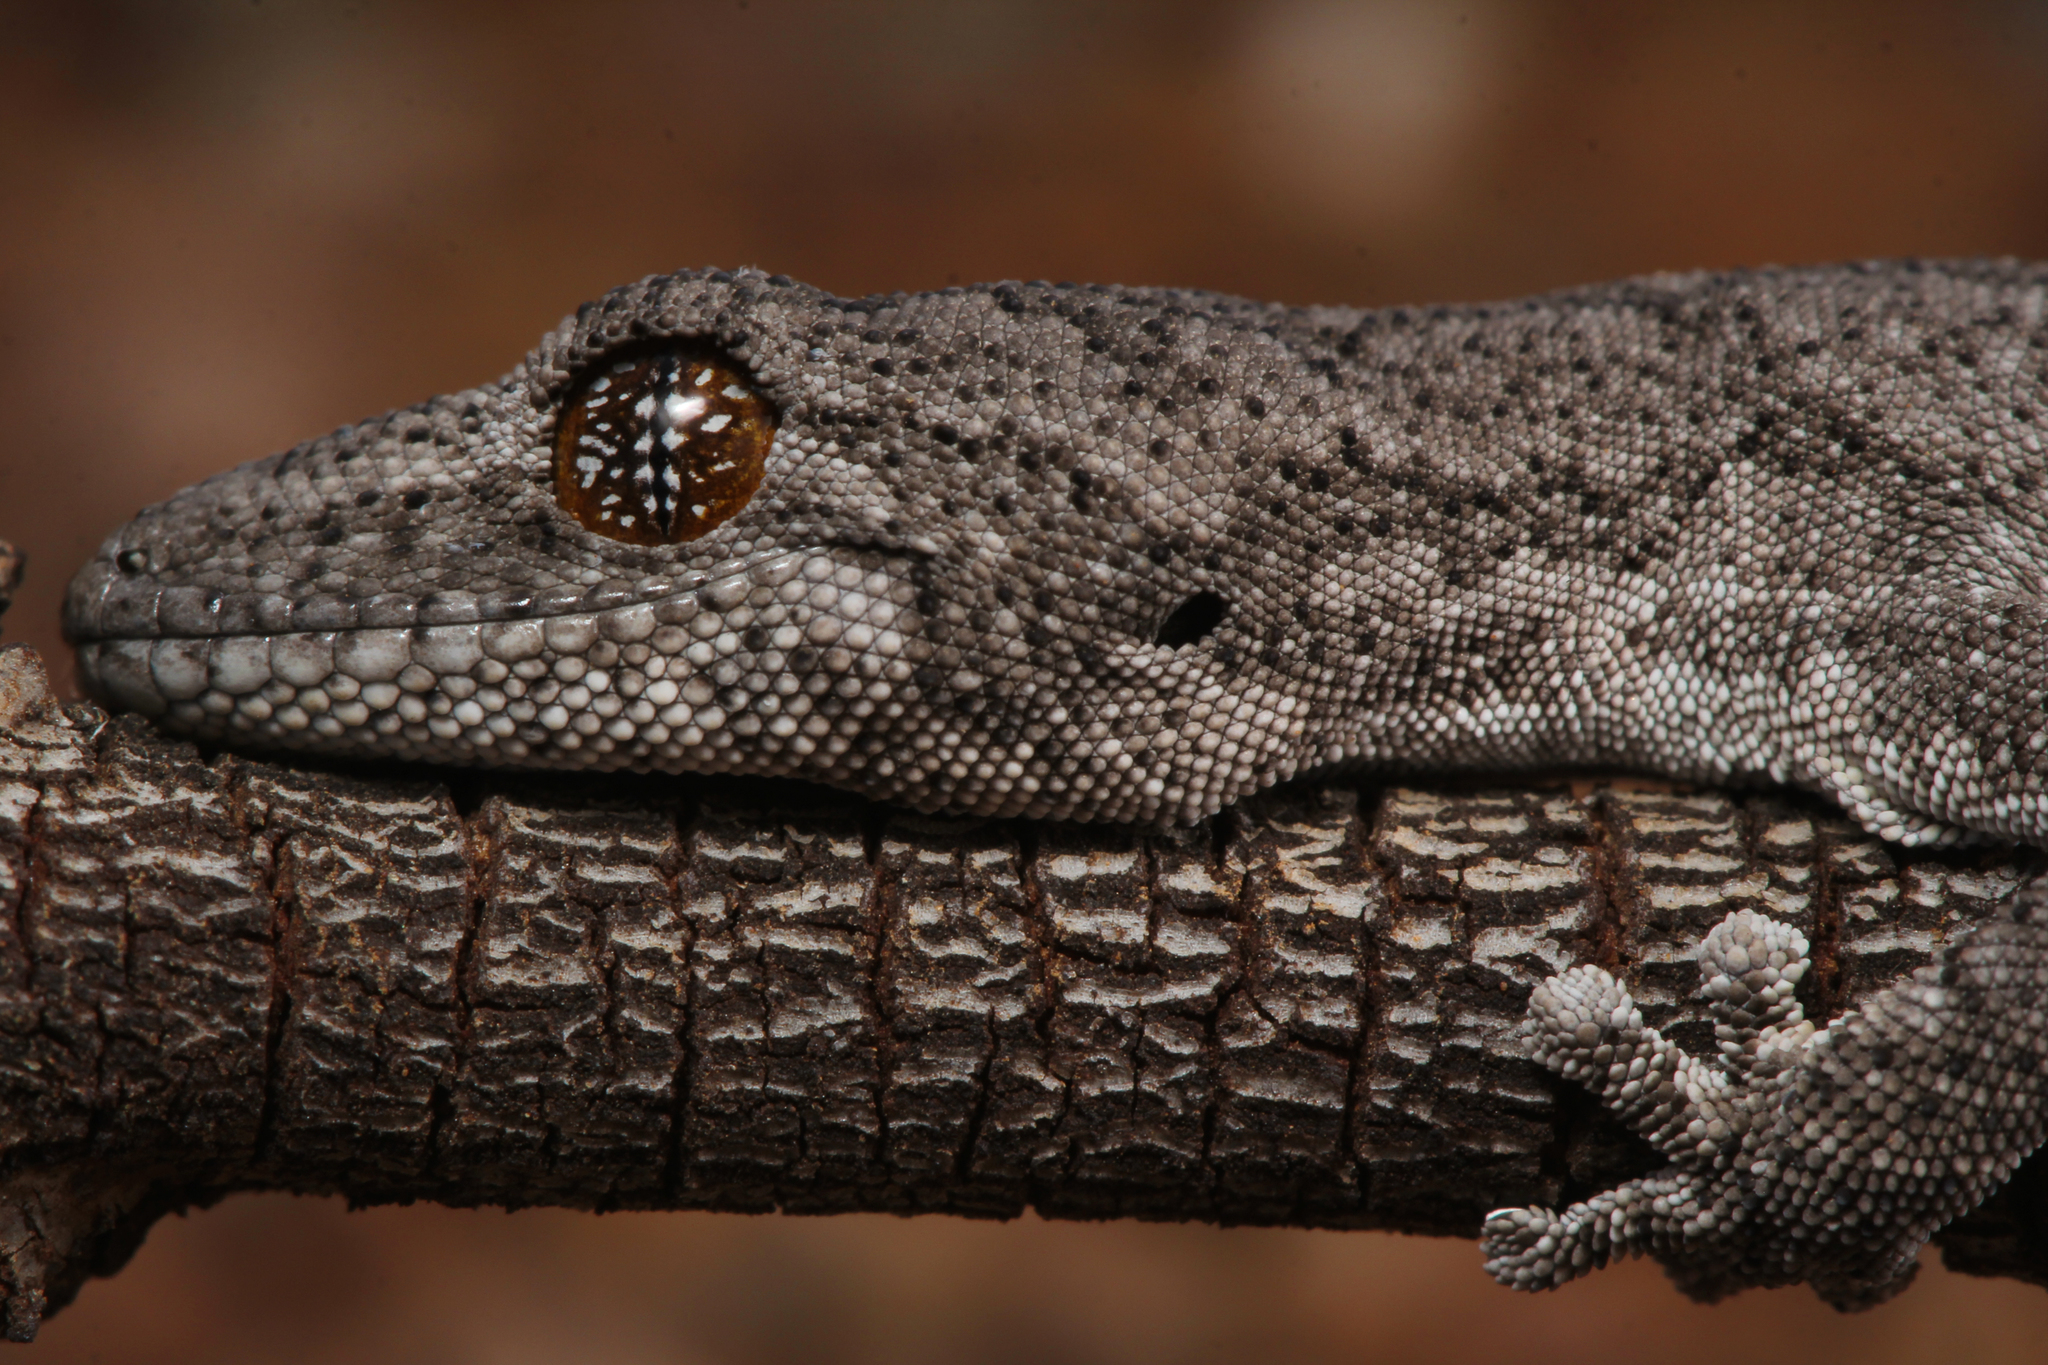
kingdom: Animalia
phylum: Chordata
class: Squamata
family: Diplodactylidae
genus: Strophurus
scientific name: Strophurus williamsi
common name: Eastern spiny-tailed gecko
